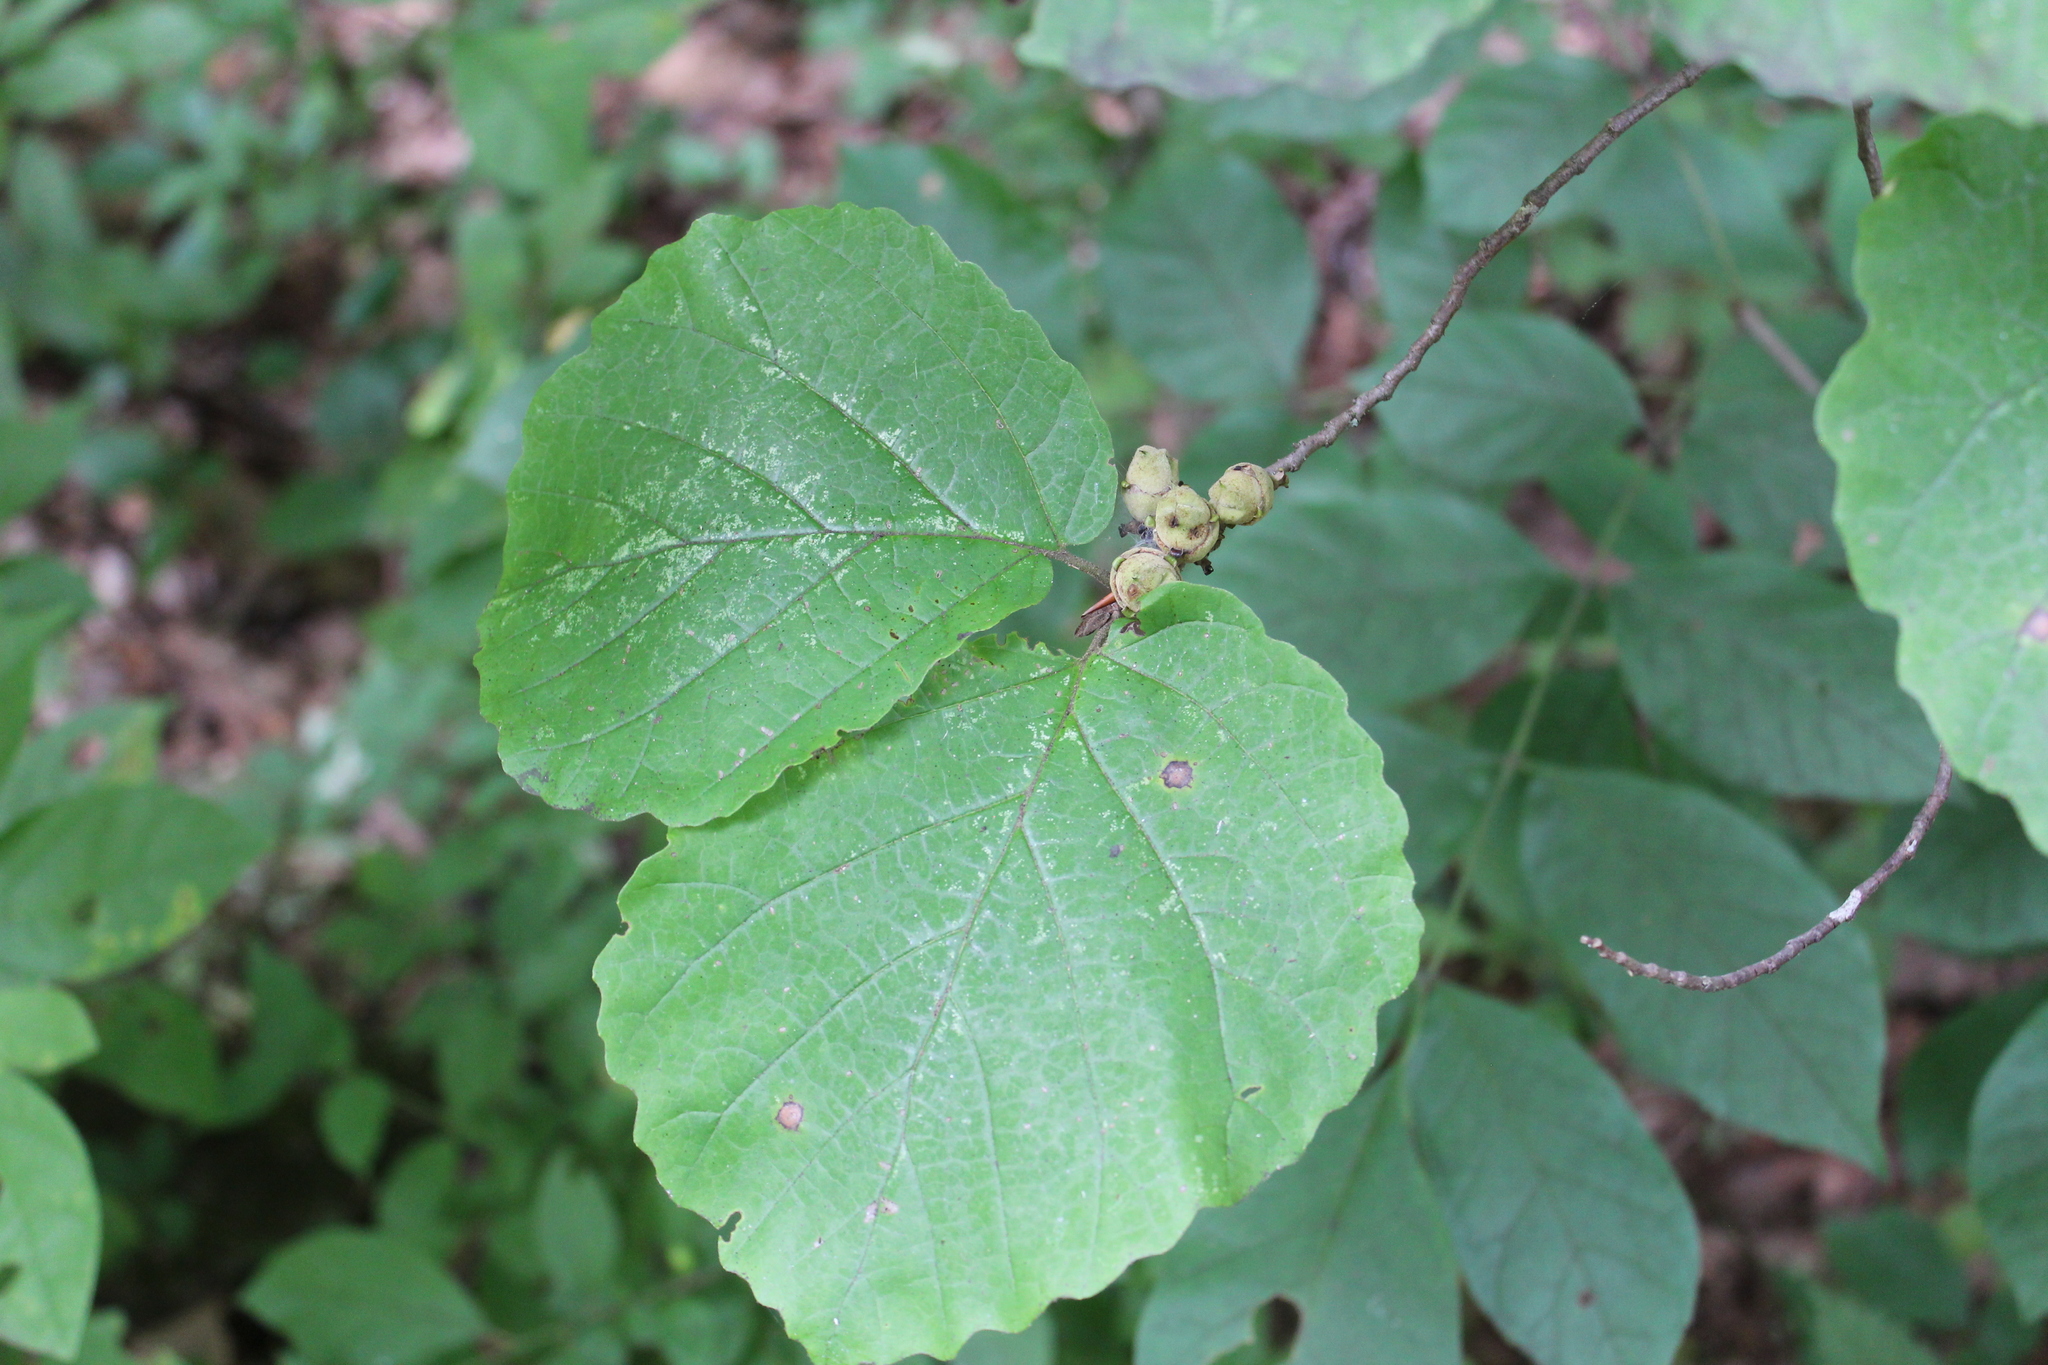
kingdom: Plantae
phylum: Tracheophyta
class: Magnoliopsida
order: Saxifragales
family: Hamamelidaceae
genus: Hamamelis
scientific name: Hamamelis virginiana
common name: Witch-hazel
